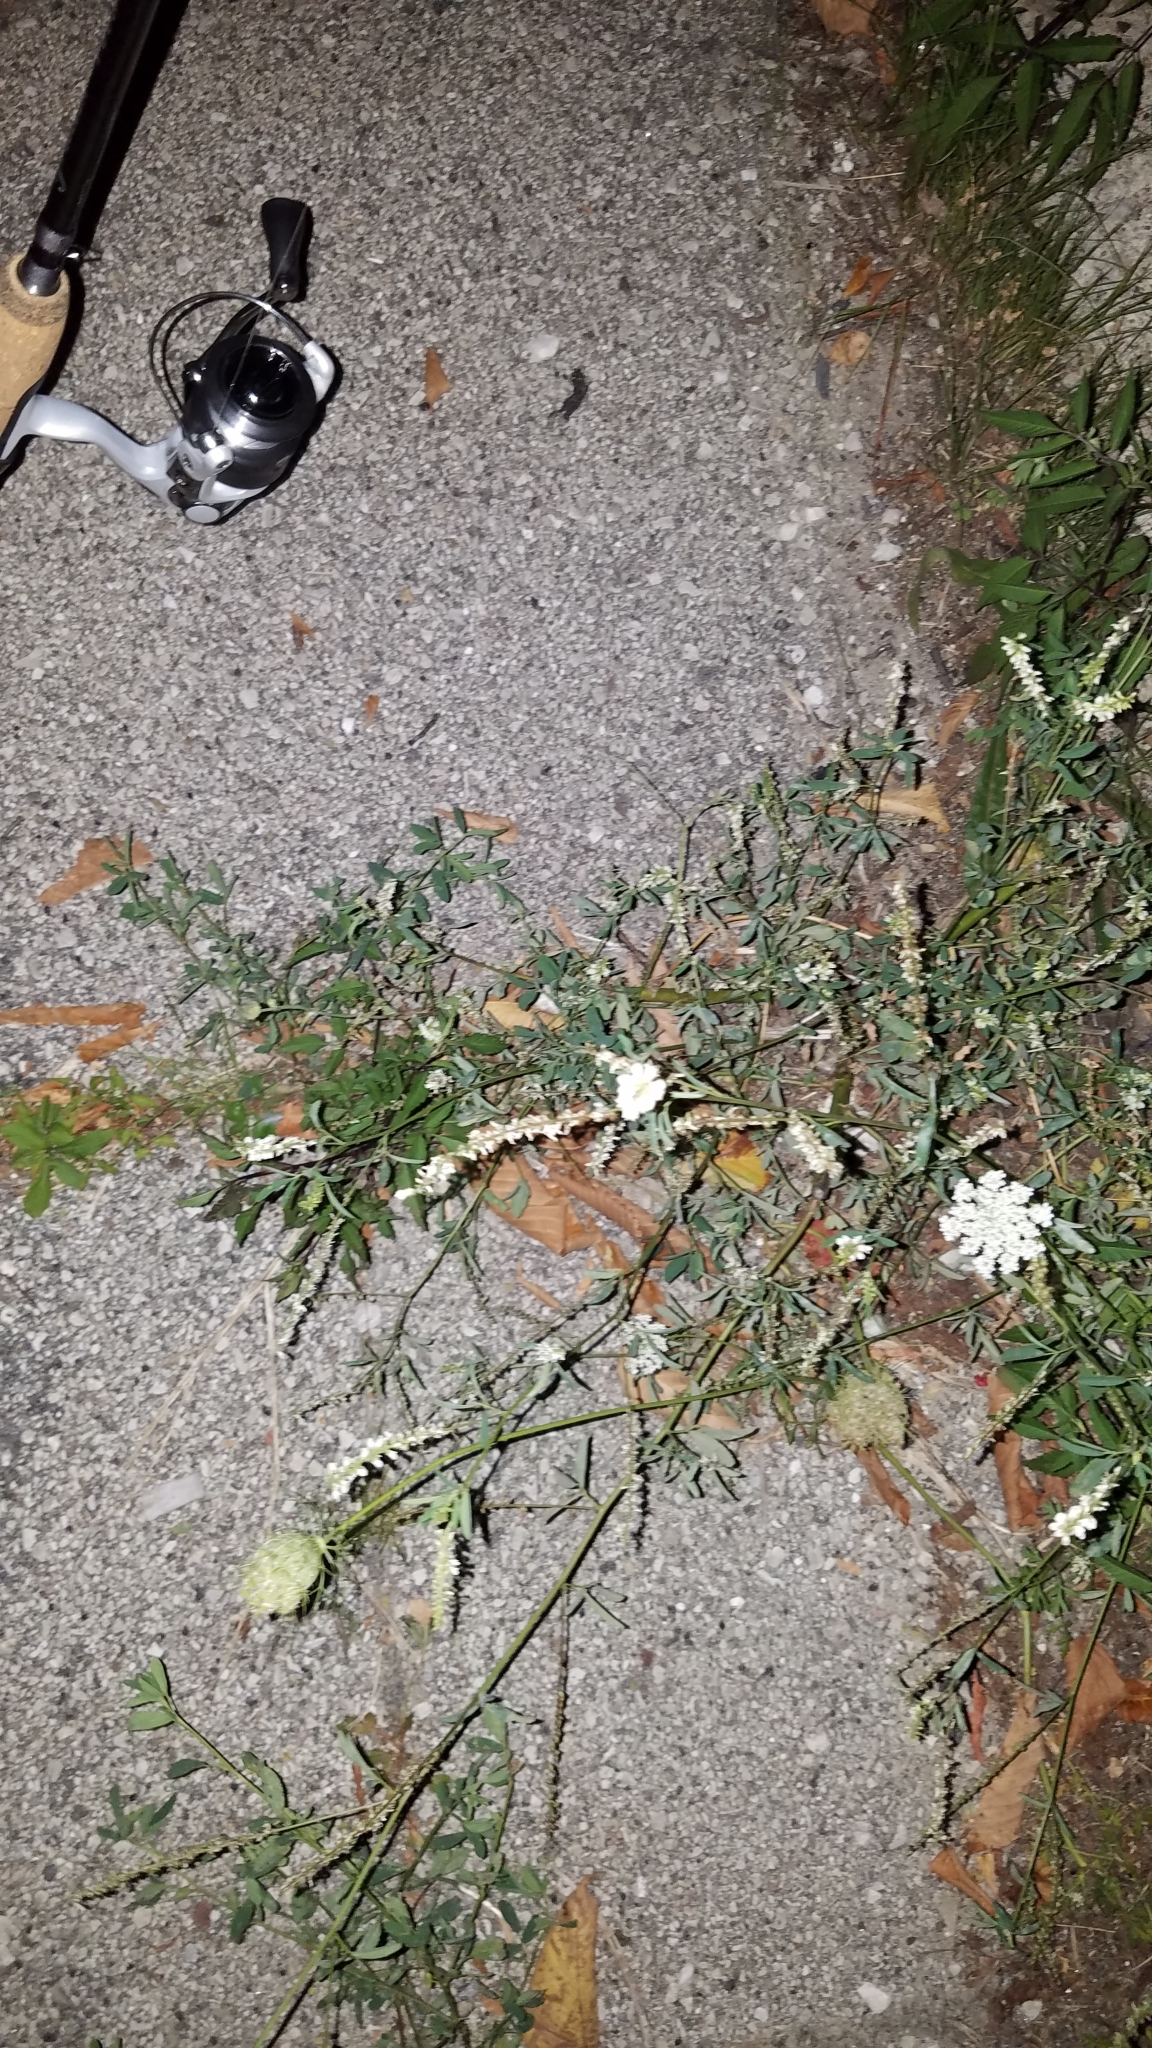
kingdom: Plantae
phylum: Tracheophyta
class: Magnoliopsida
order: Fabales
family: Fabaceae
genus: Melilotus
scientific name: Melilotus albus
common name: White melilot
